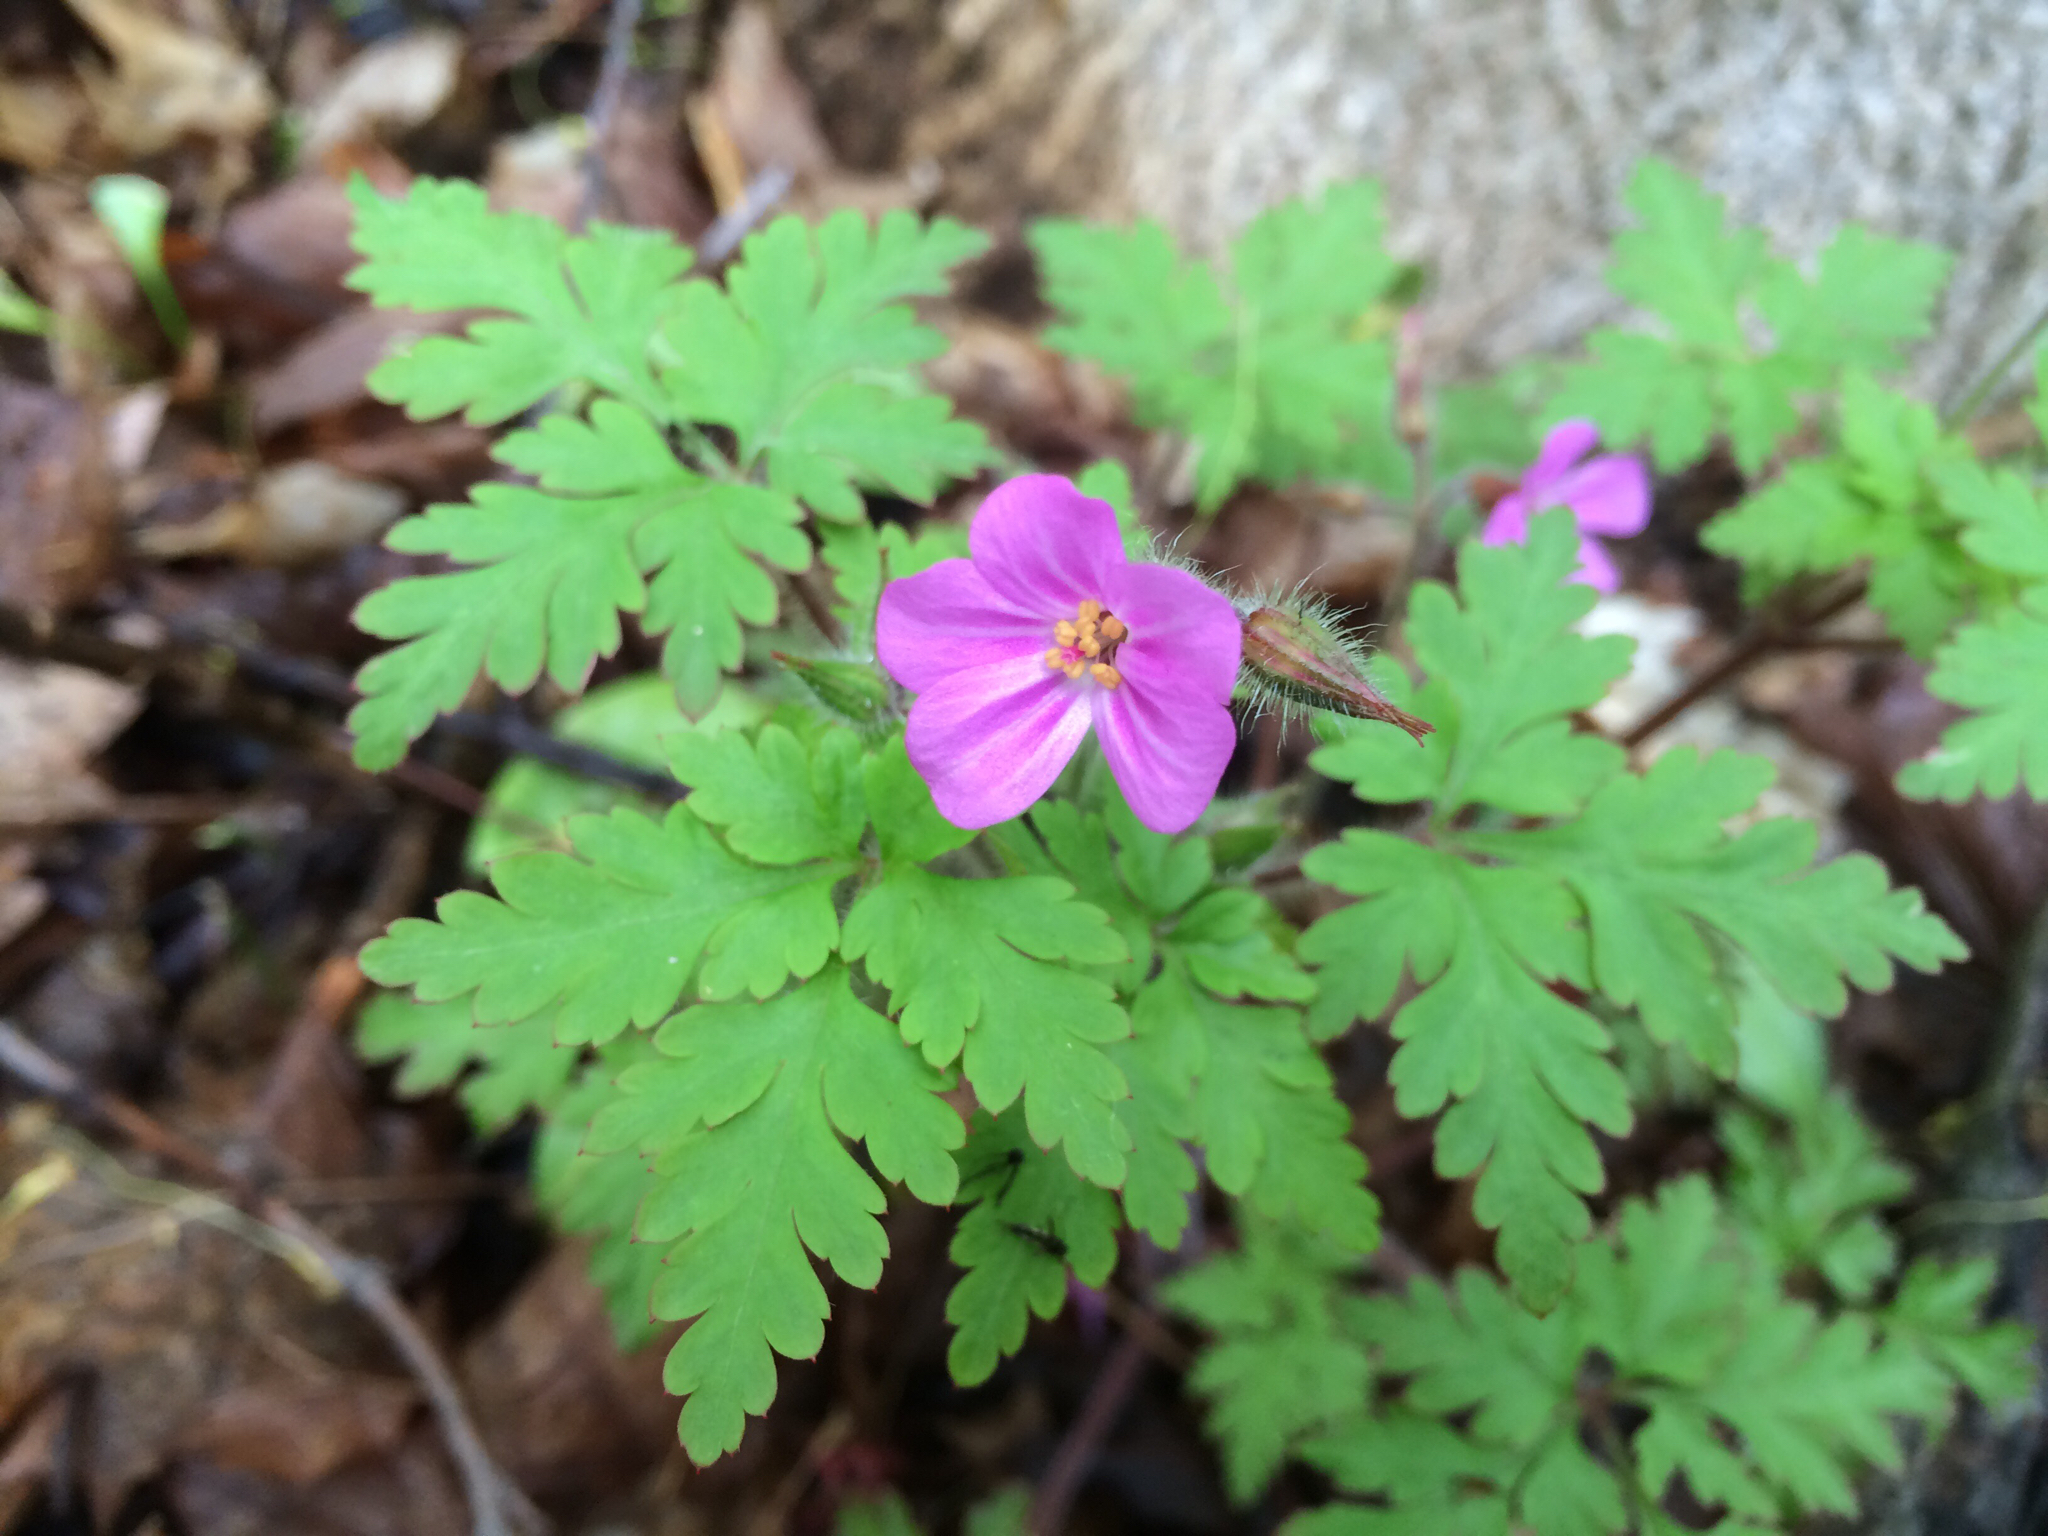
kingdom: Plantae
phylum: Tracheophyta
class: Magnoliopsida
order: Geraniales
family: Geraniaceae
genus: Geranium
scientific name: Geranium robertianum
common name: Herb-robert
